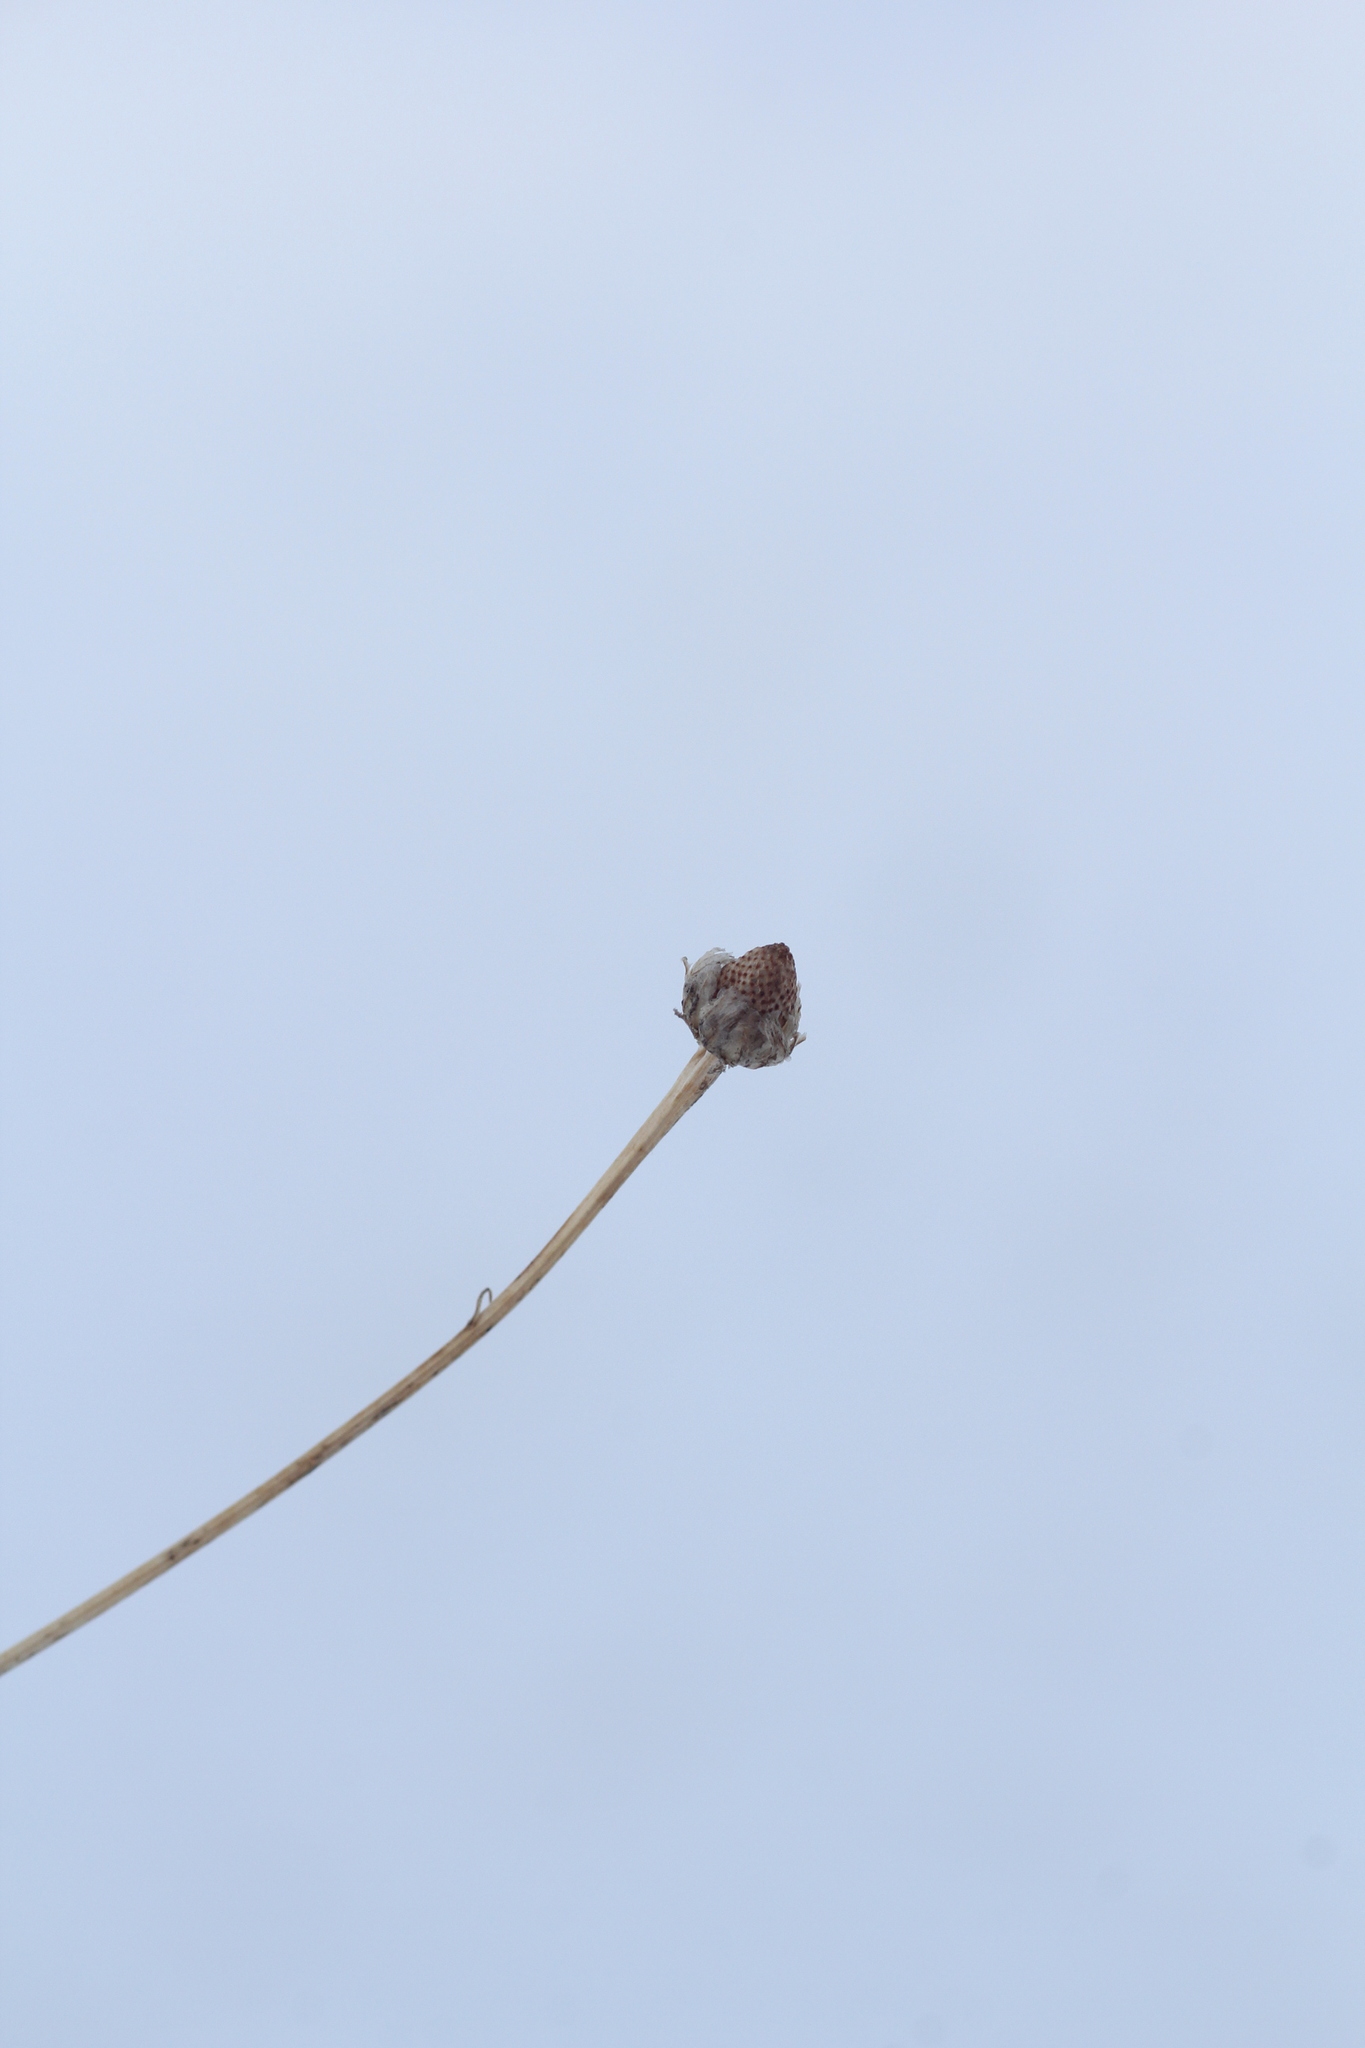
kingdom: Plantae
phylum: Tracheophyta
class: Magnoliopsida
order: Asterales
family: Asteraceae
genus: Tripleurospermum
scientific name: Tripleurospermum inodorum
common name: Scentless mayweed
